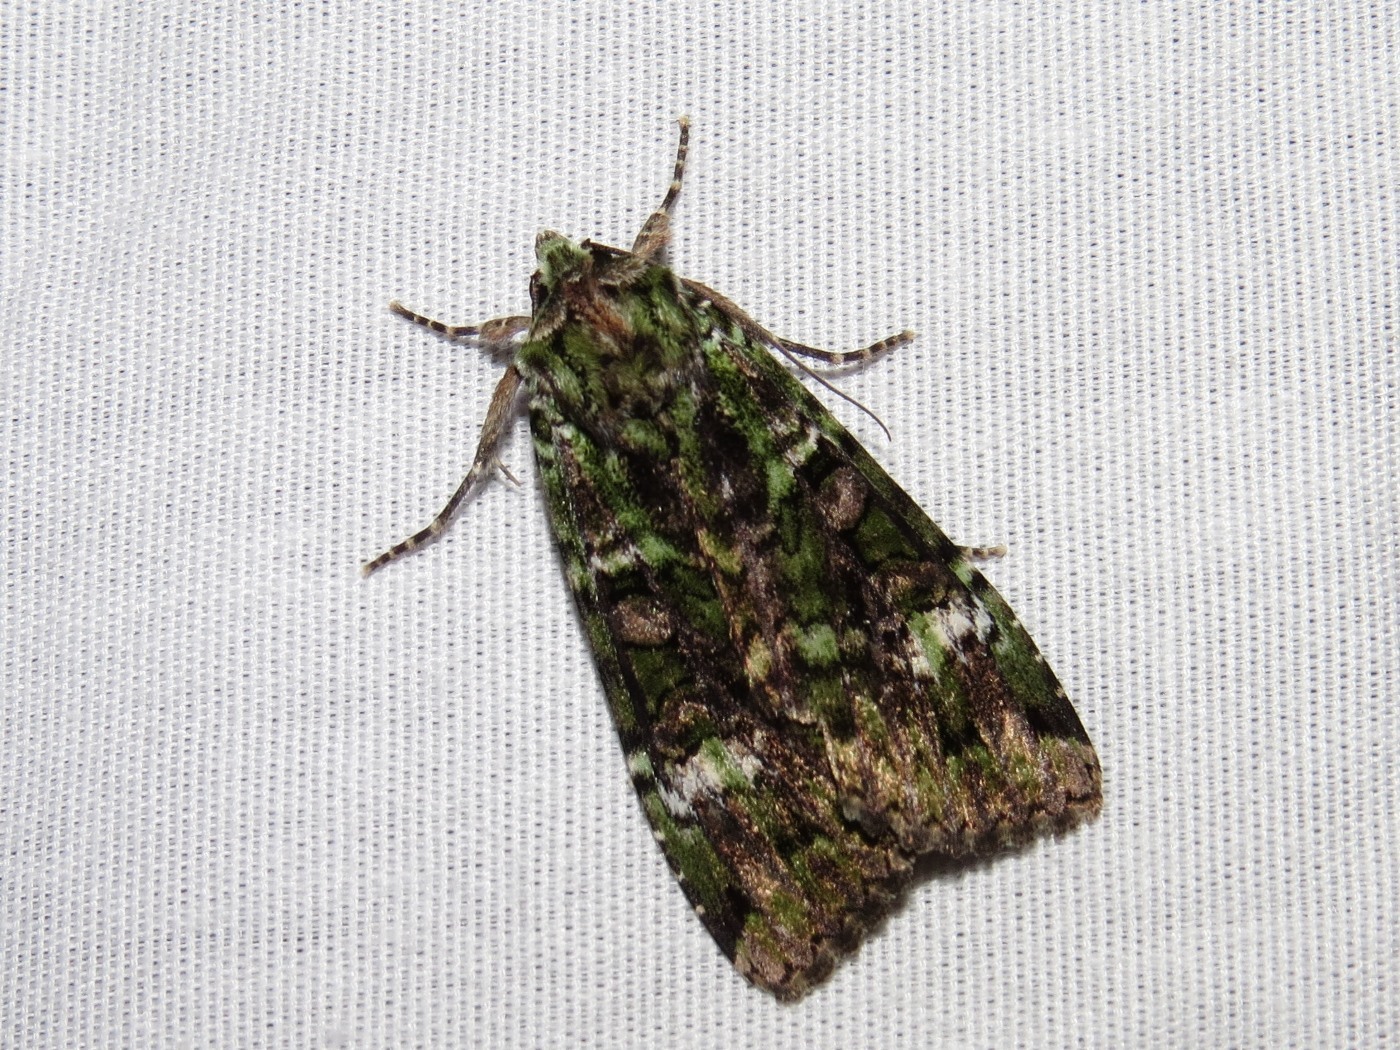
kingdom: Animalia
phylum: Arthropoda
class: Insecta
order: Lepidoptera
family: Noctuidae
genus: Anaplectoides
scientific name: Anaplectoides prasina
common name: Green arches
